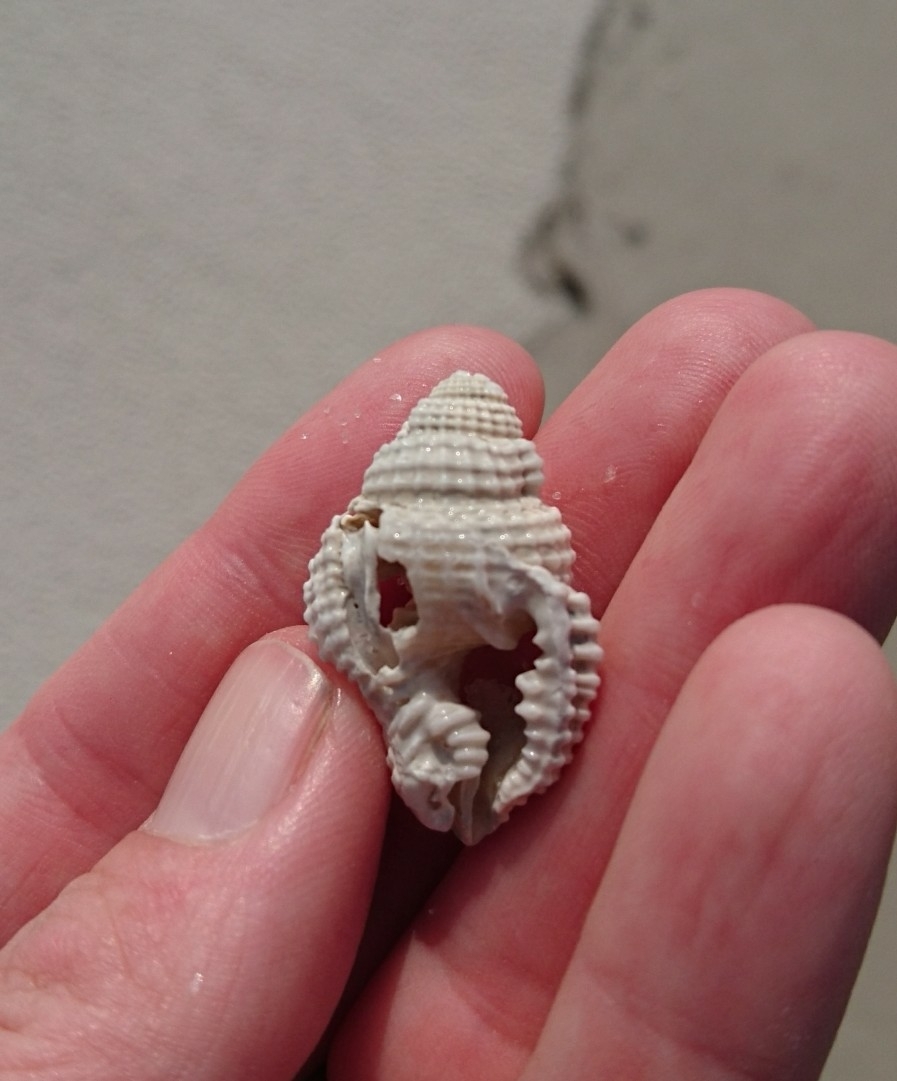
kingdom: Animalia
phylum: Mollusca
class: Gastropoda
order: Littorinimorpha
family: Personidae
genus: Distorsio
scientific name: Distorsio clathrata
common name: Atlantic distorsio
